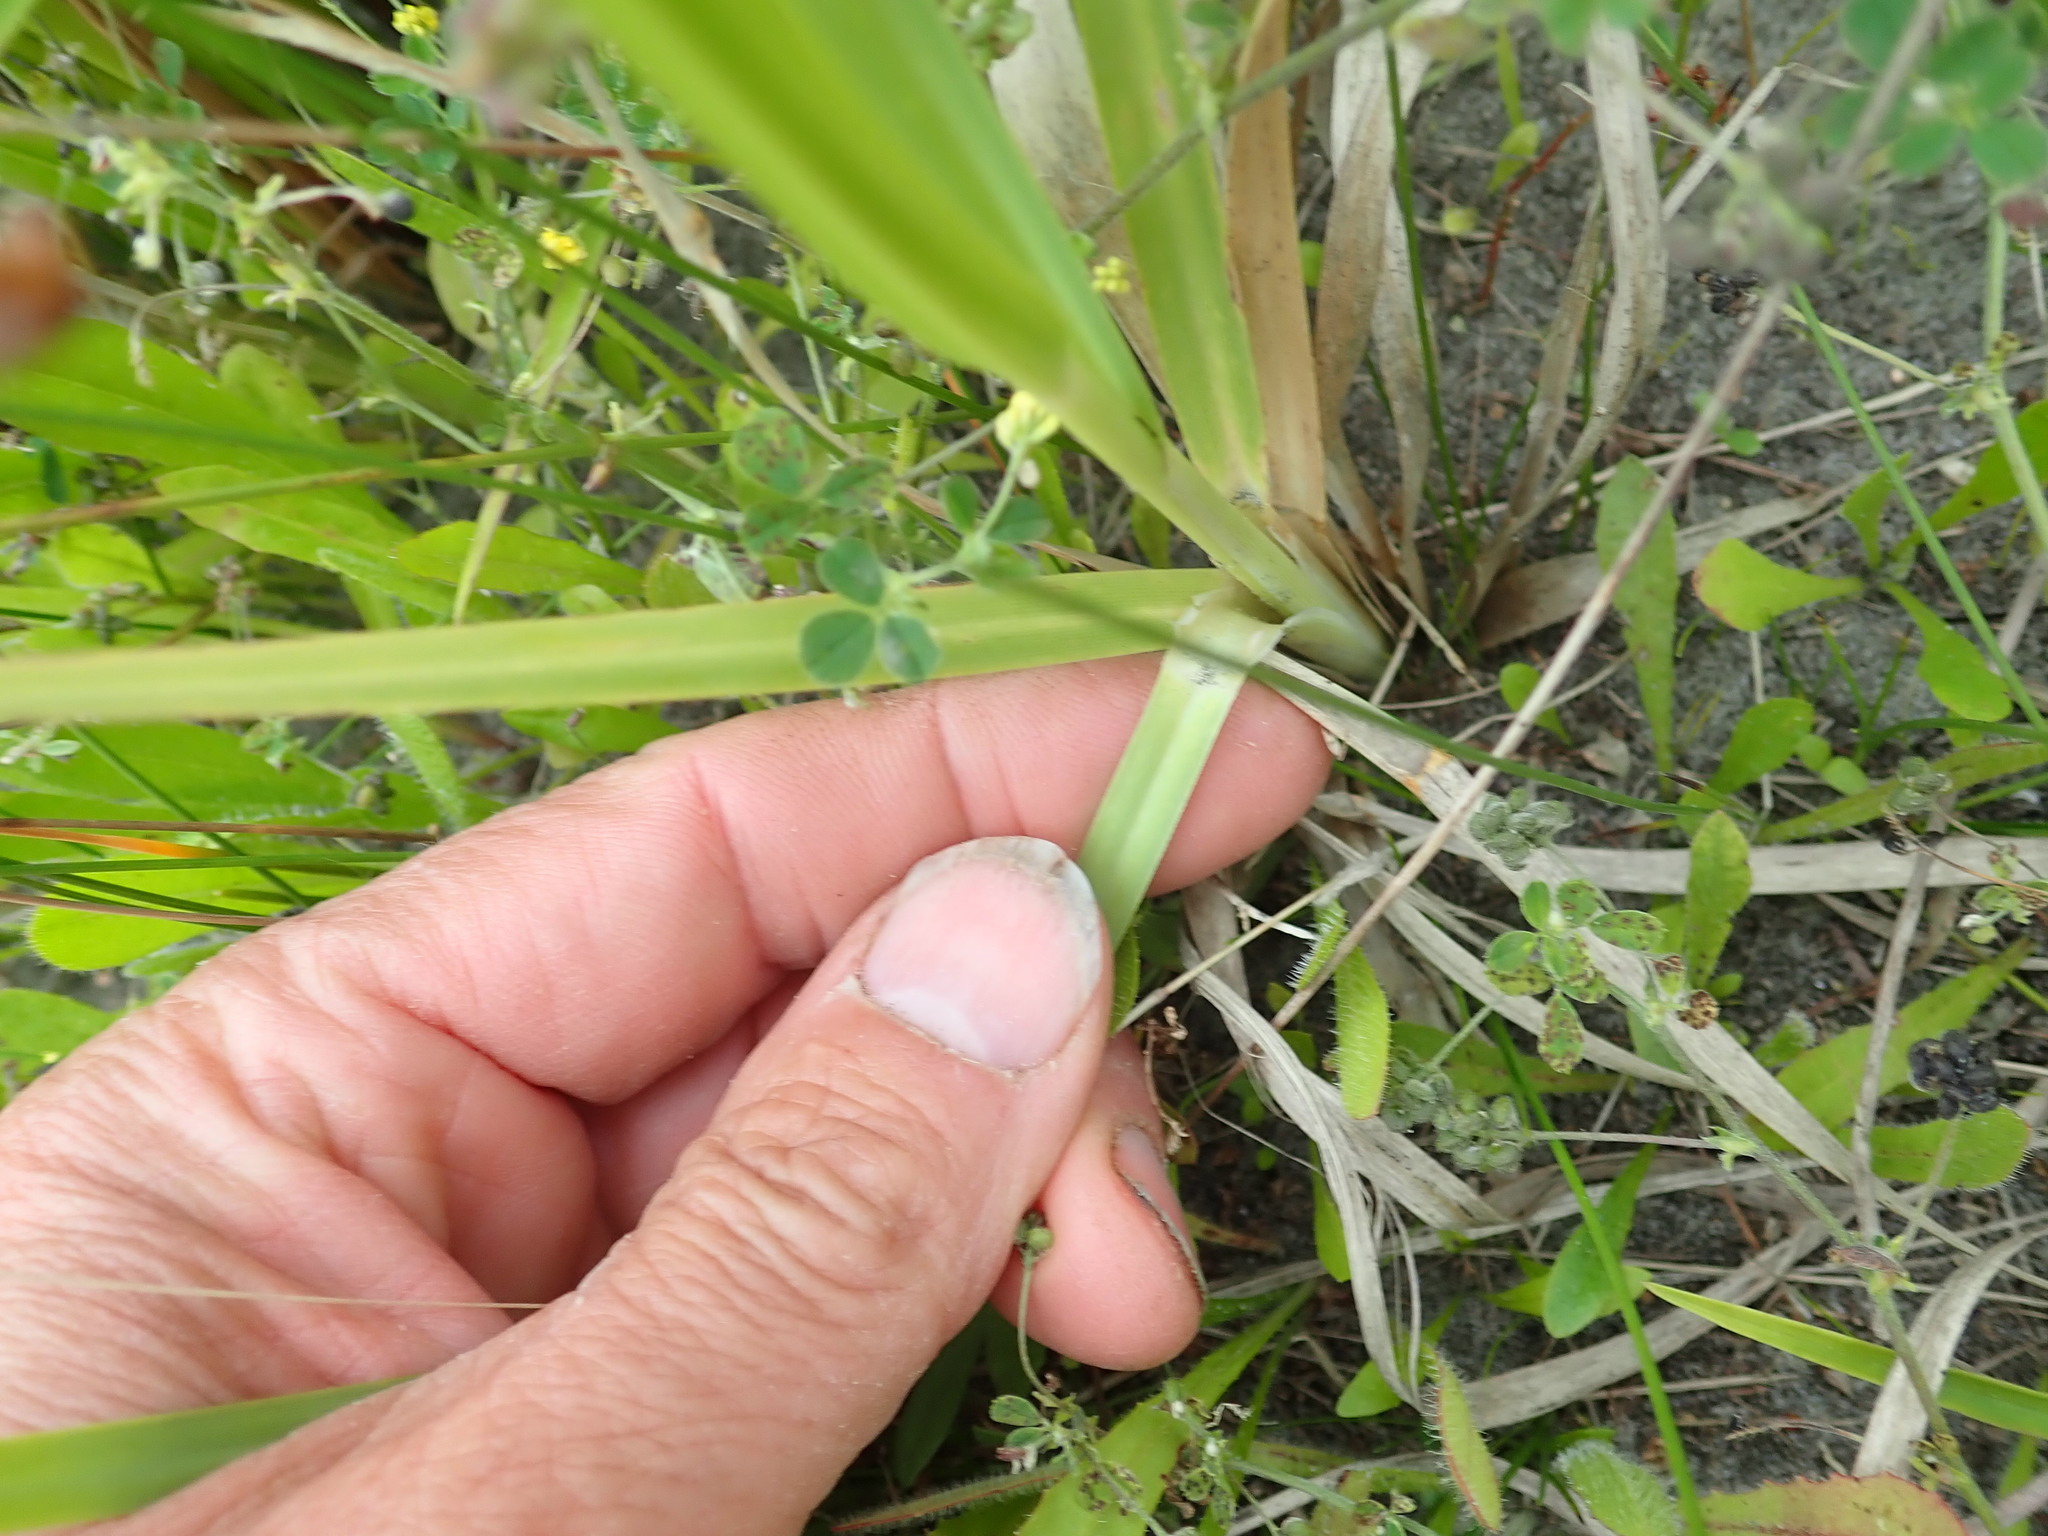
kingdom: Plantae
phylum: Tracheophyta
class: Liliopsida
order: Poales
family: Poaceae
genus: Cortaderia
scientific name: Cortaderia selloana
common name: Uruguayan pampas grass
